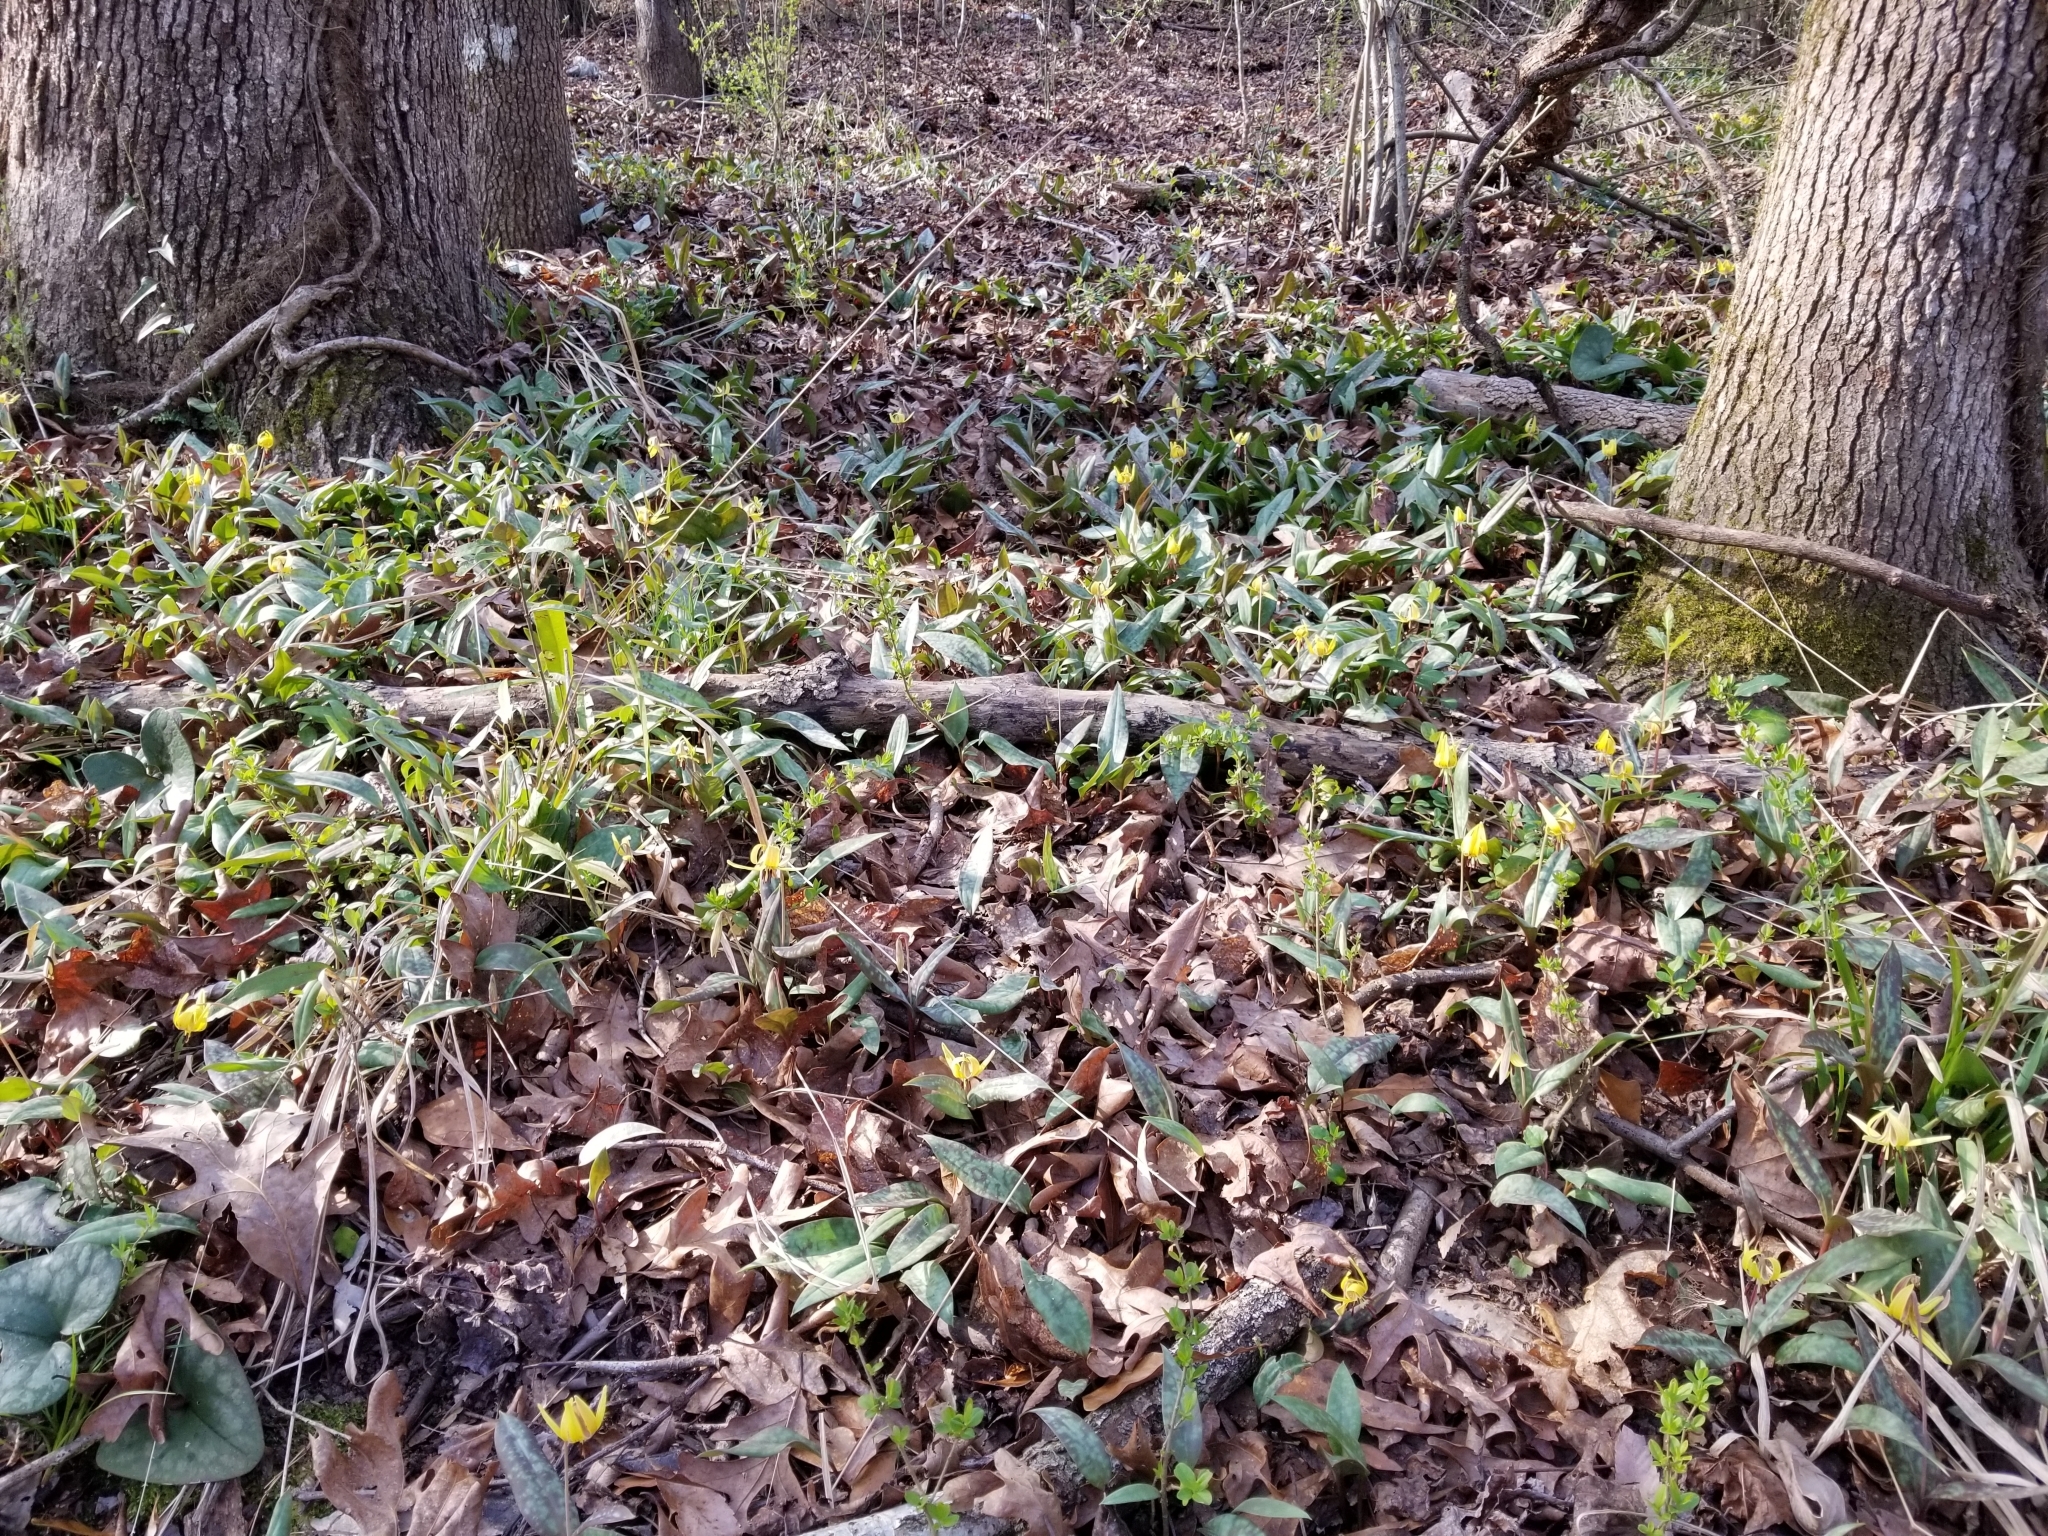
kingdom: Plantae
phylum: Tracheophyta
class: Liliopsida
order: Liliales
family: Liliaceae
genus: Erythronium
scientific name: Erythronium umbilicatum
